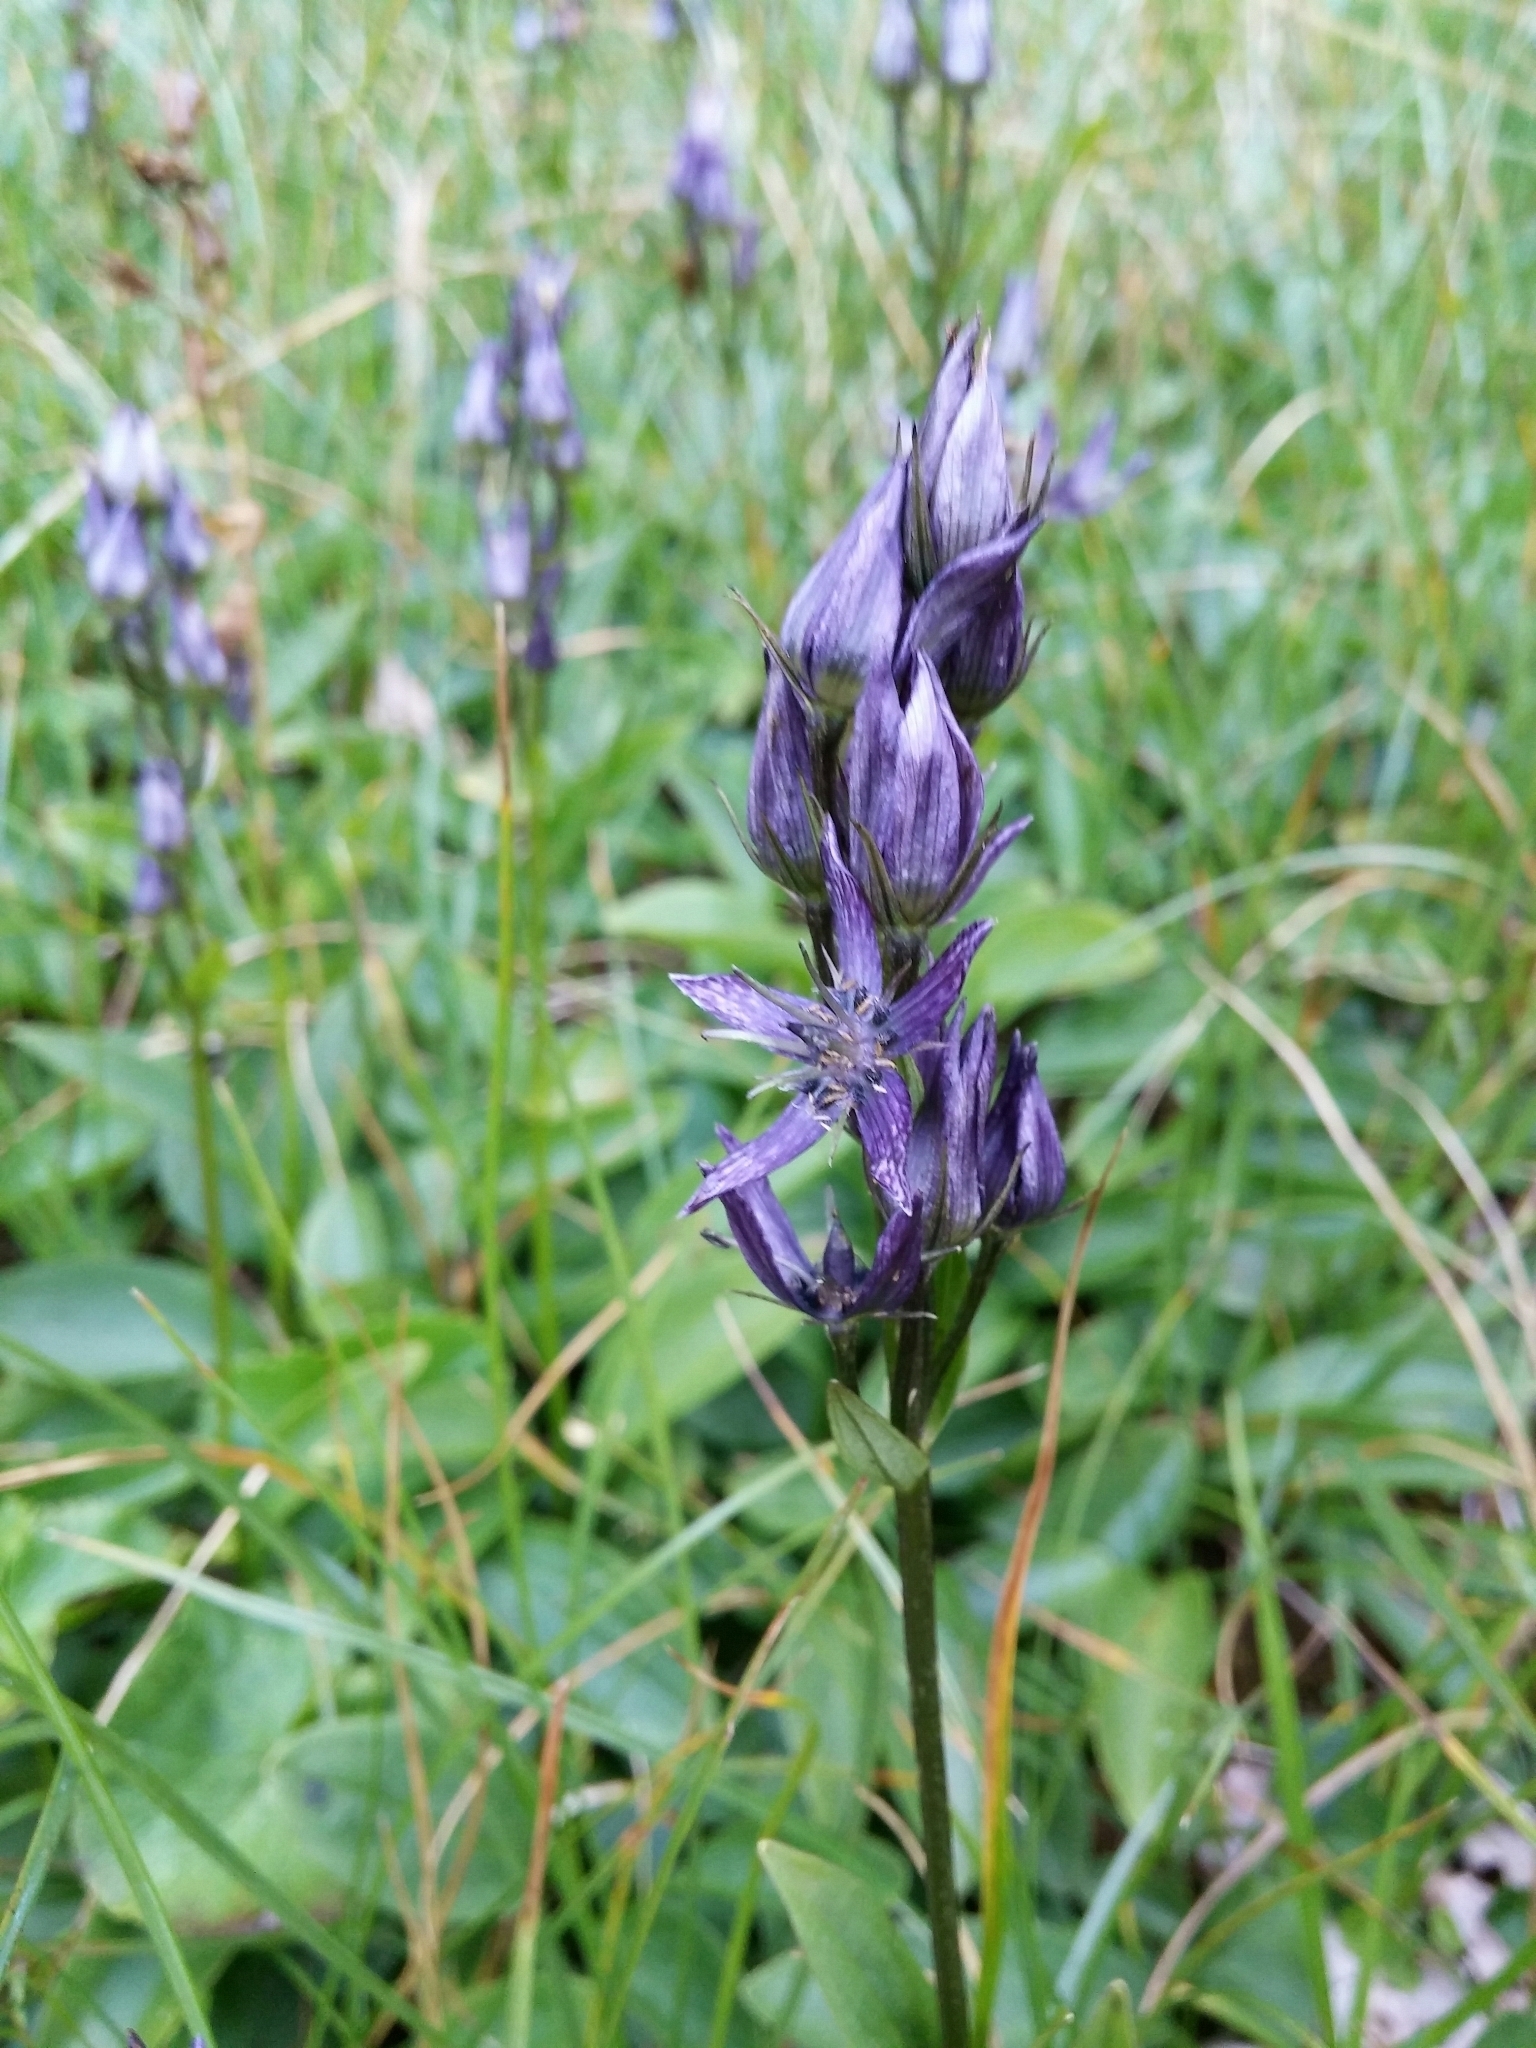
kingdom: Plantae
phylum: Tracheophyta
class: Magnoliopsida
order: Gentianales
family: Gentianaceae
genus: Swertia
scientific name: Swertia perennis
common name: Alpine bog swertia
